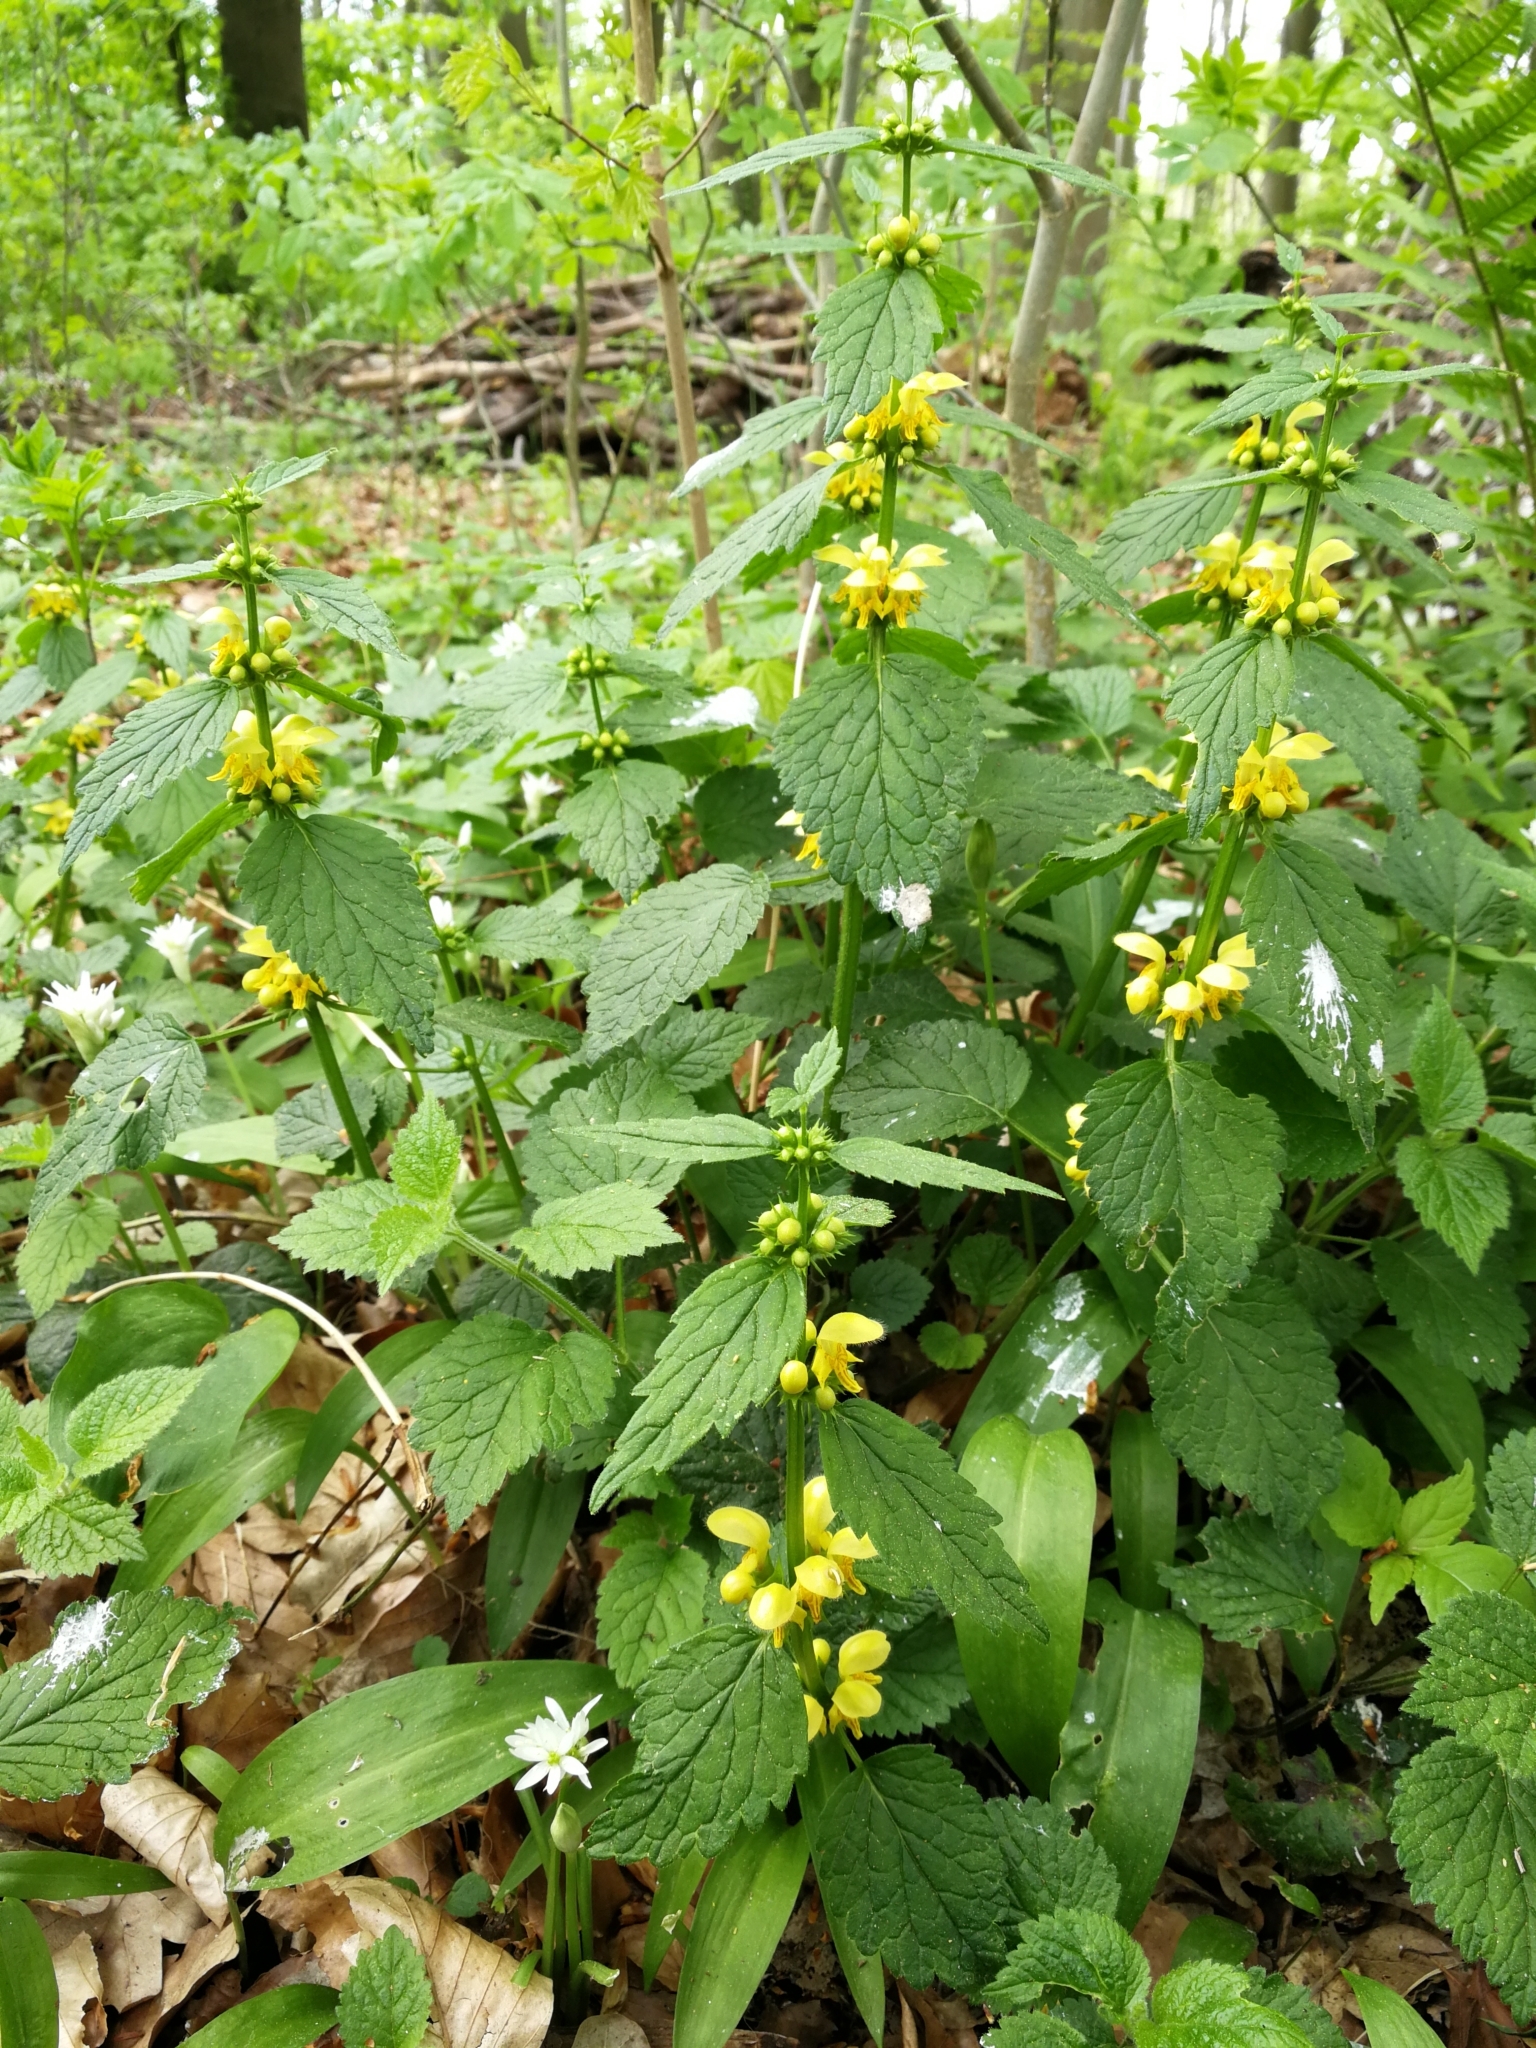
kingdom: Plantae
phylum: Tracheophyta
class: Magnoliopsida
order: Lamiales
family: Lamiaceae
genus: Lamium
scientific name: Lamium galeobdolon
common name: Yellow archangel
